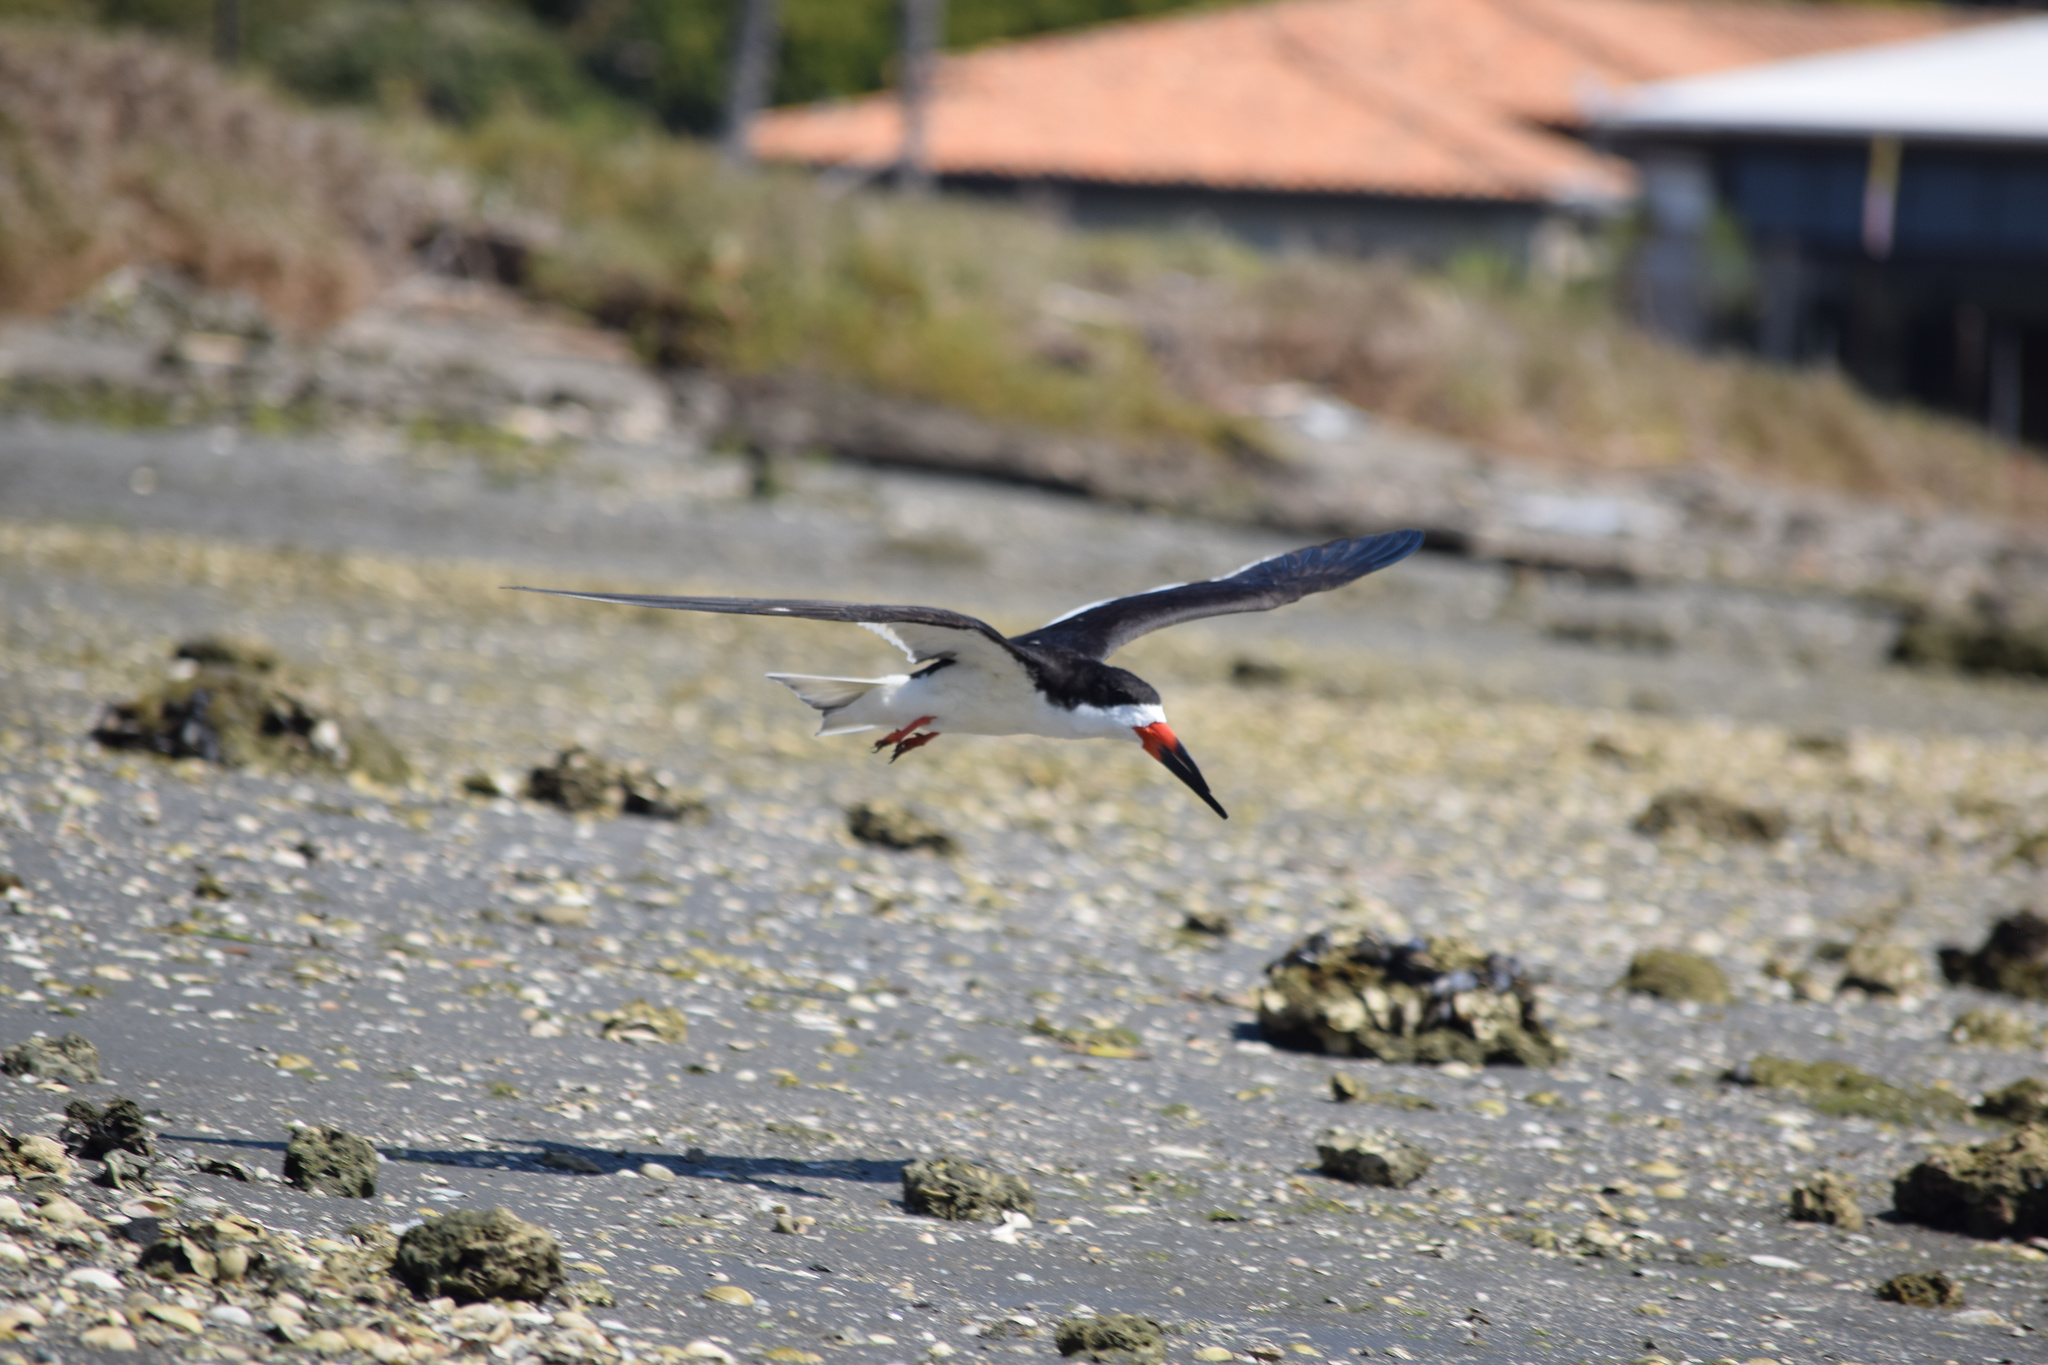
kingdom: Animalia
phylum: Chordata
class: Aves
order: Charadriiformes
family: Laridae
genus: Rynchops
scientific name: Rynchops niger
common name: Black skimmer
